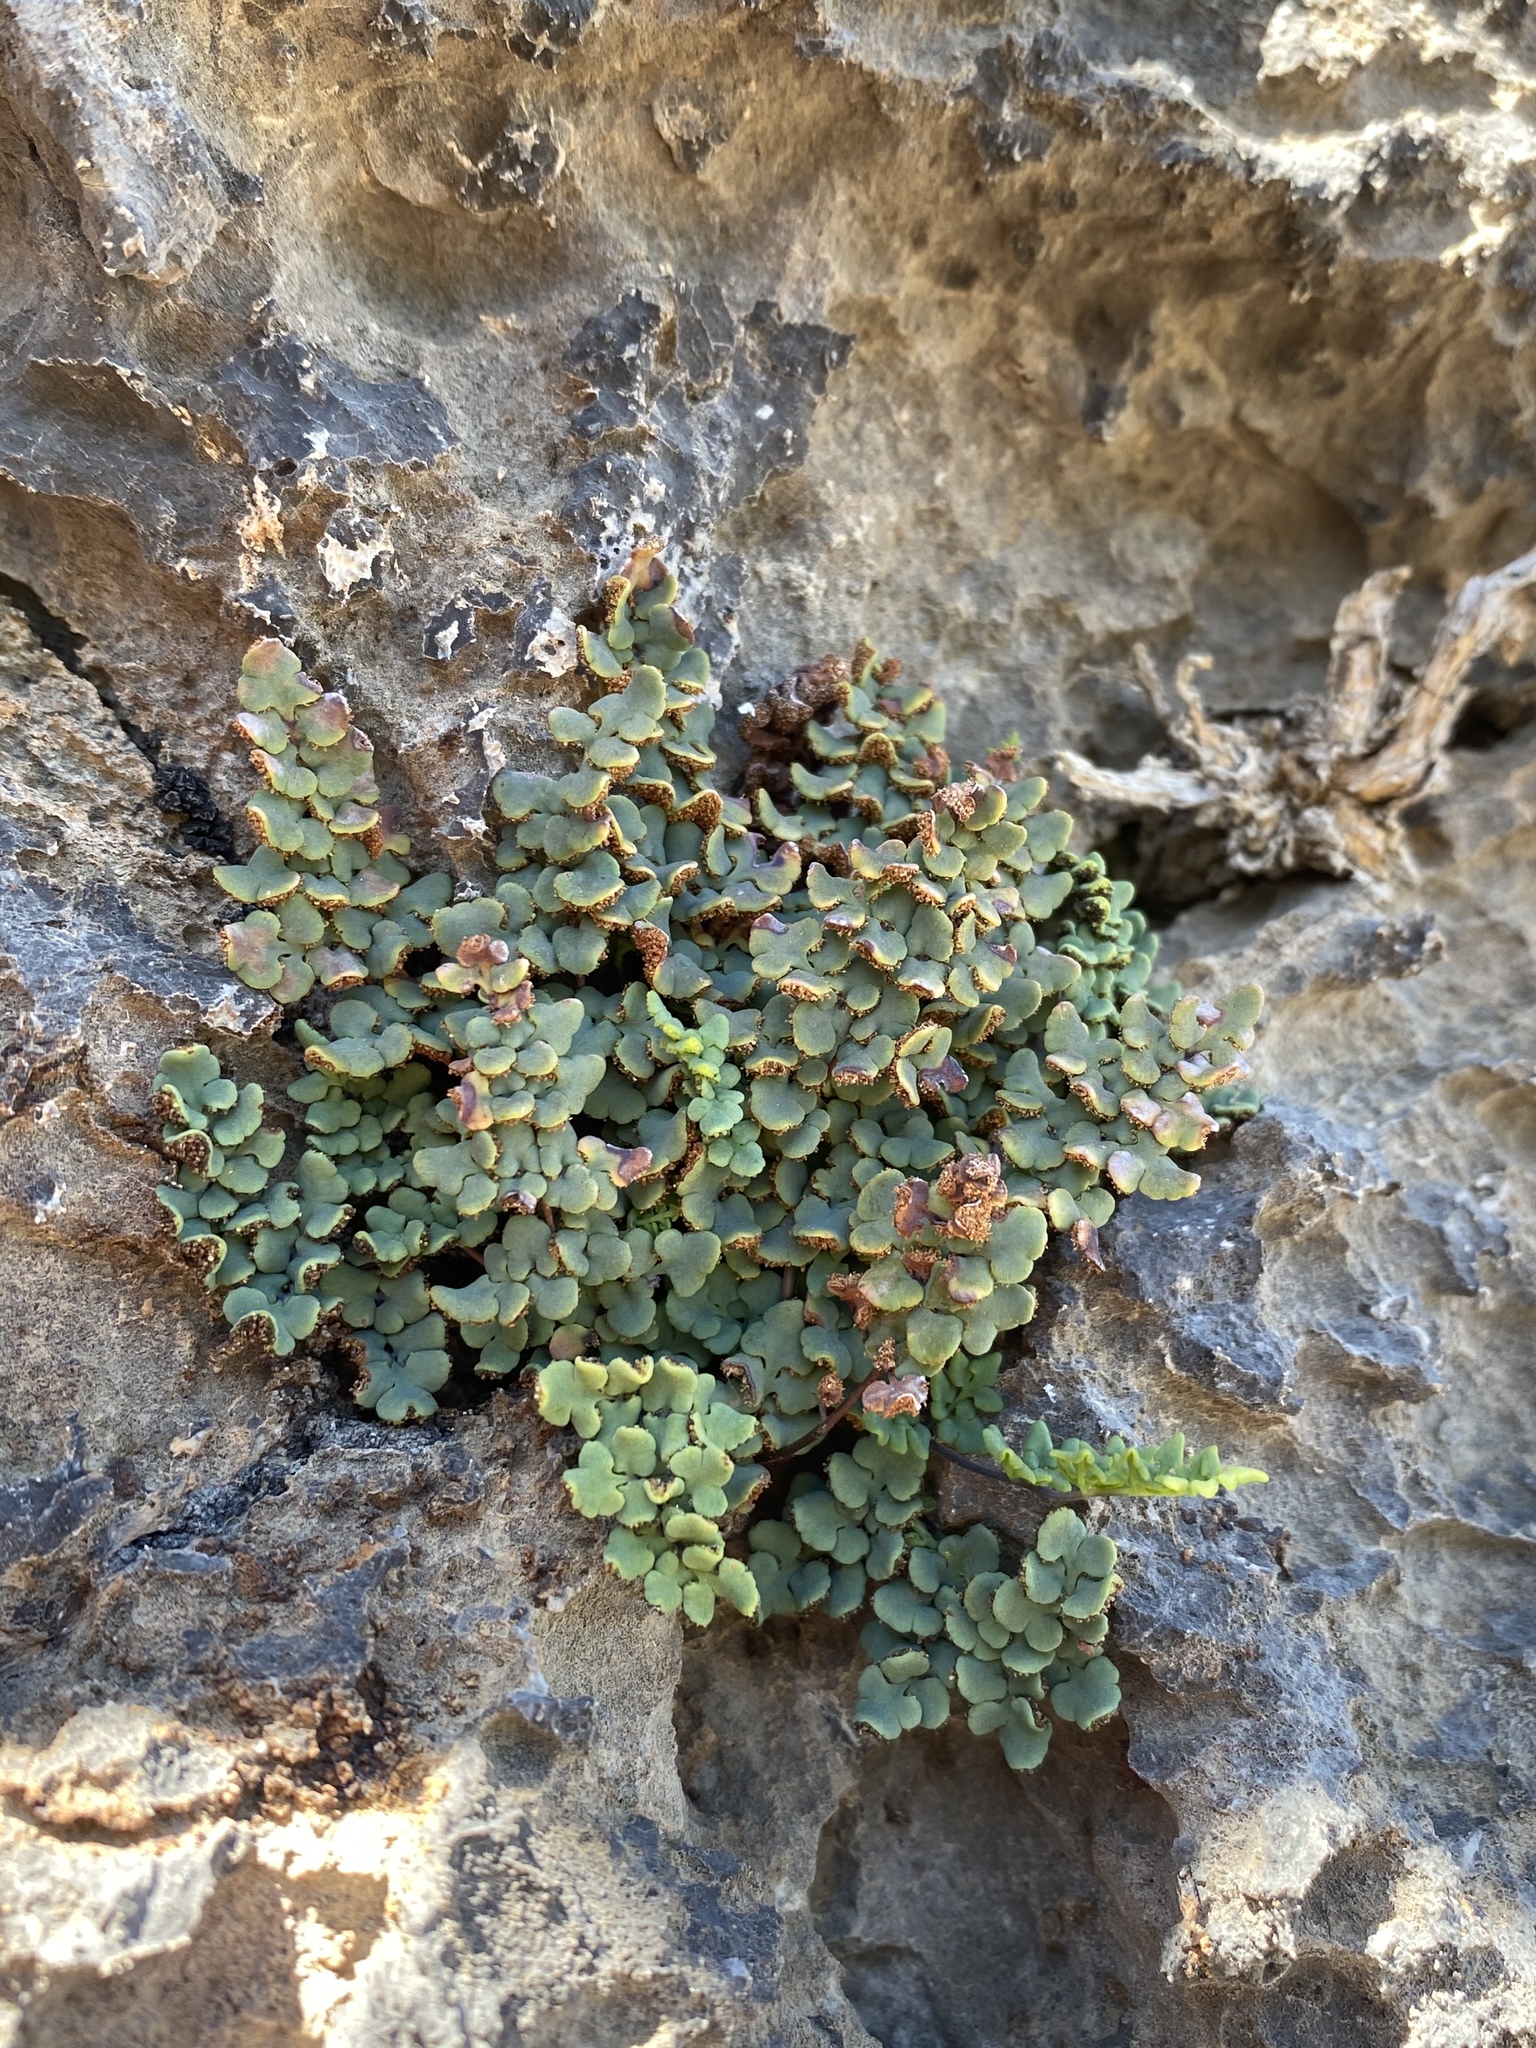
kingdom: Plantae
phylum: Tracheophyta
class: Polypodiopsida
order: Polypodiales
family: Pteridaceae
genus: Argyrochosma
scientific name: Argyrochosma jonesii
